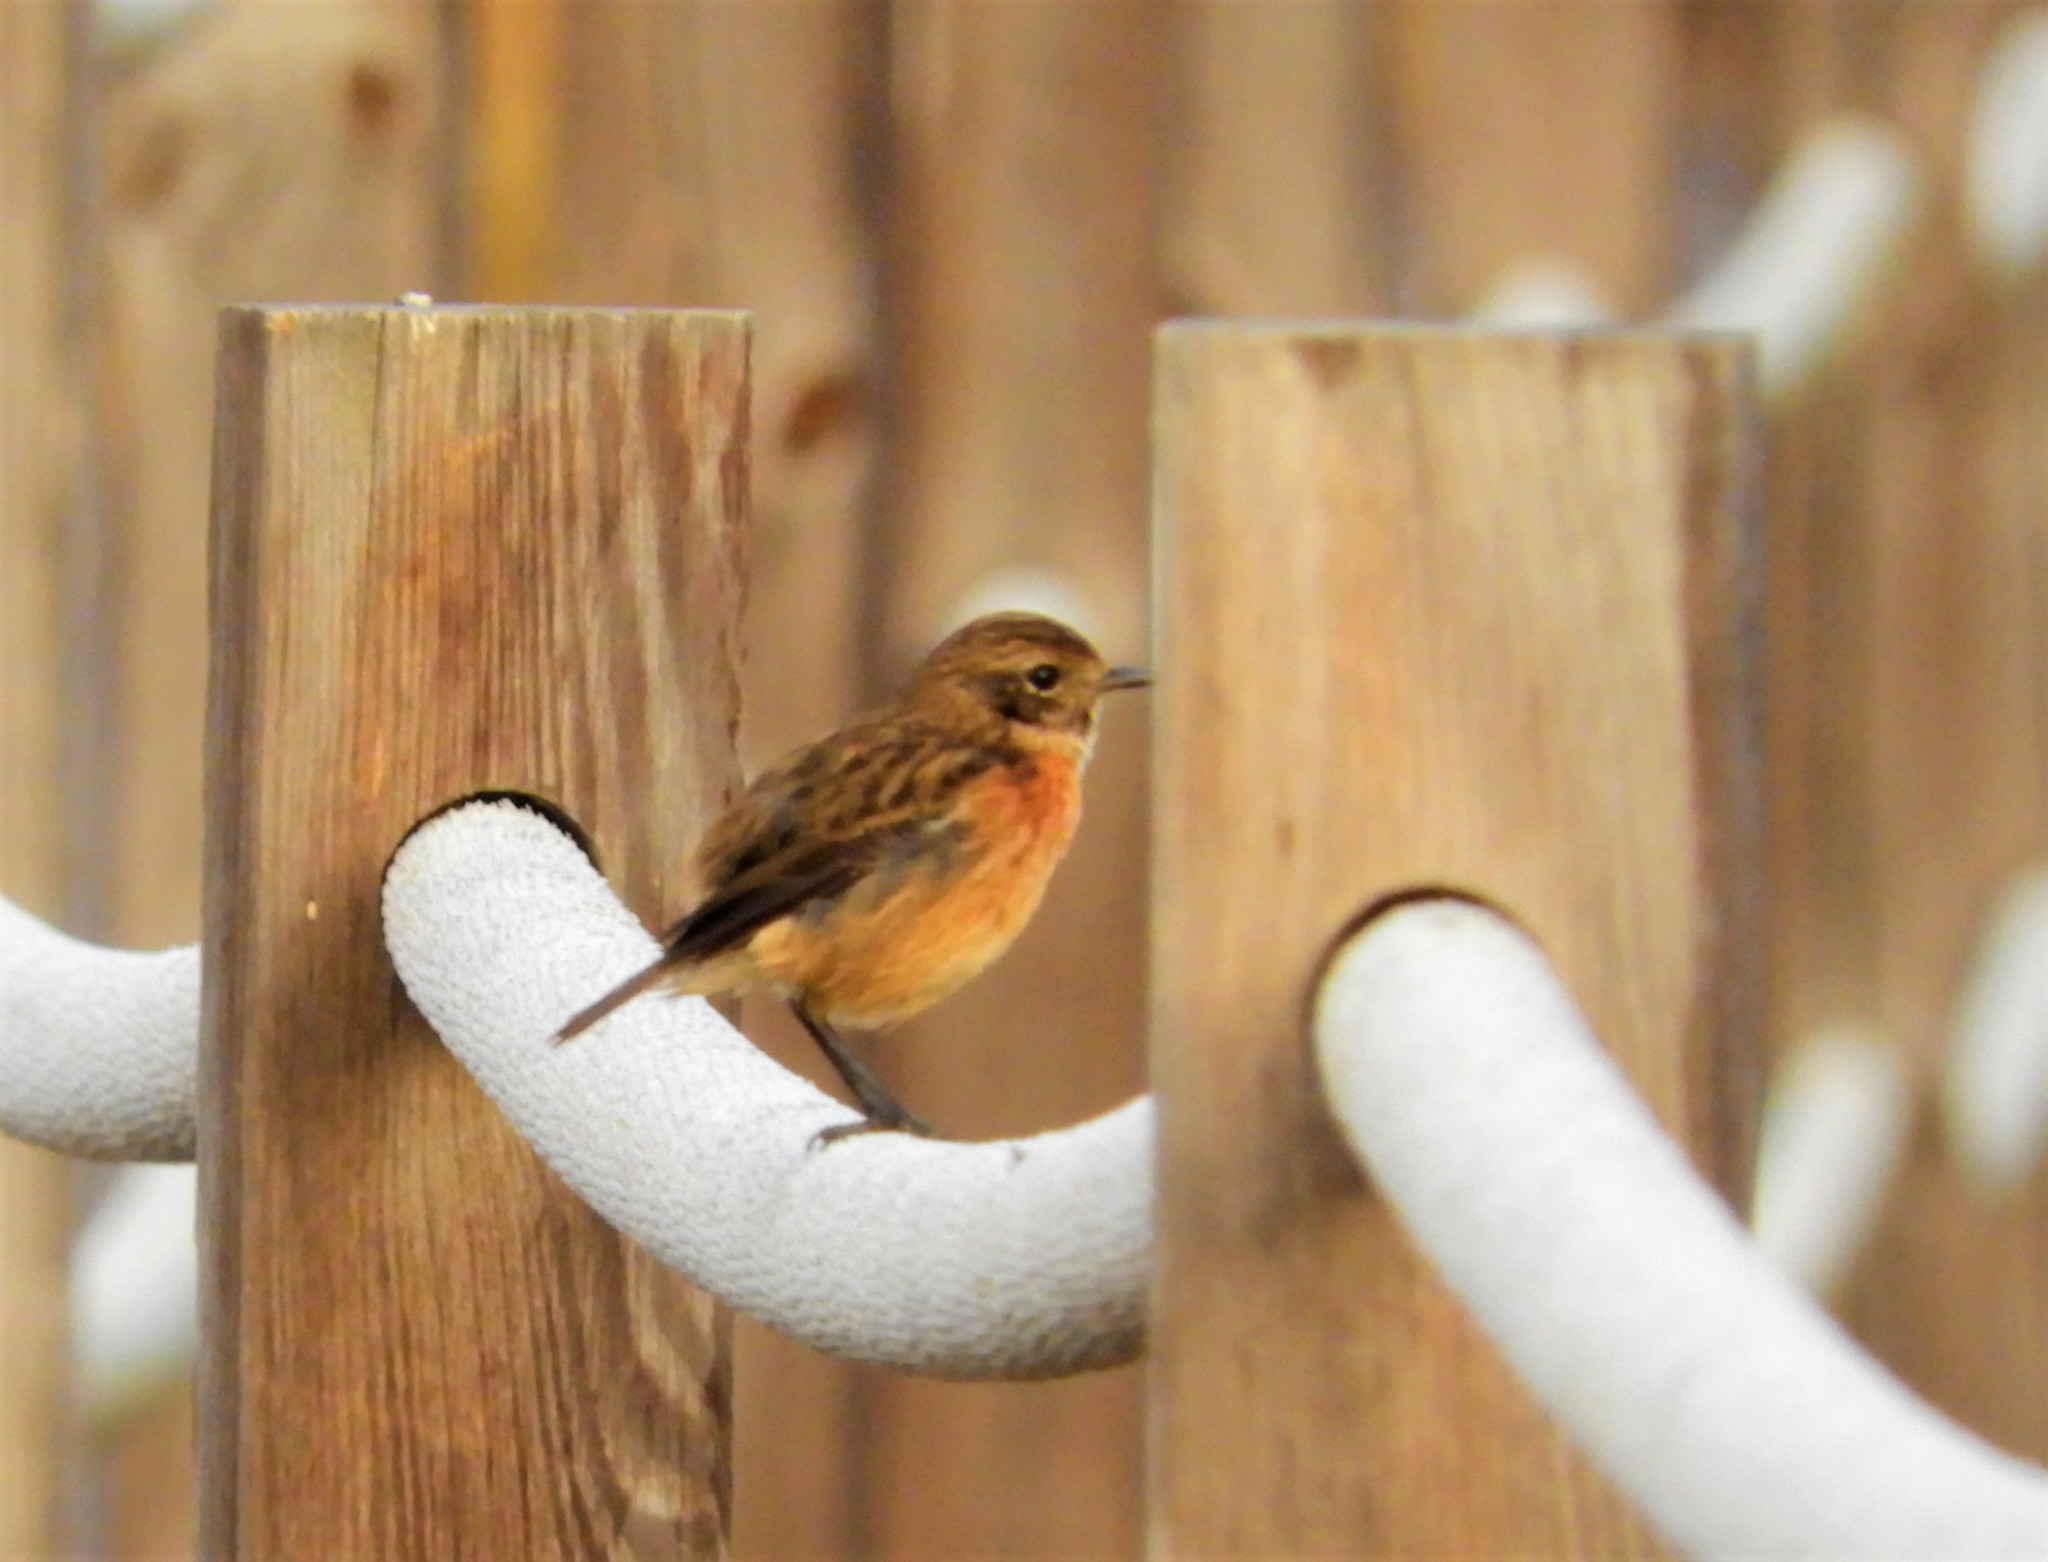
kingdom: Animalia
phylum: Chordata
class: Aves
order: Passeriformes
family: Muscicapidae
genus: Saxicola
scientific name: Saxicola rubicola
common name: European stonechat
